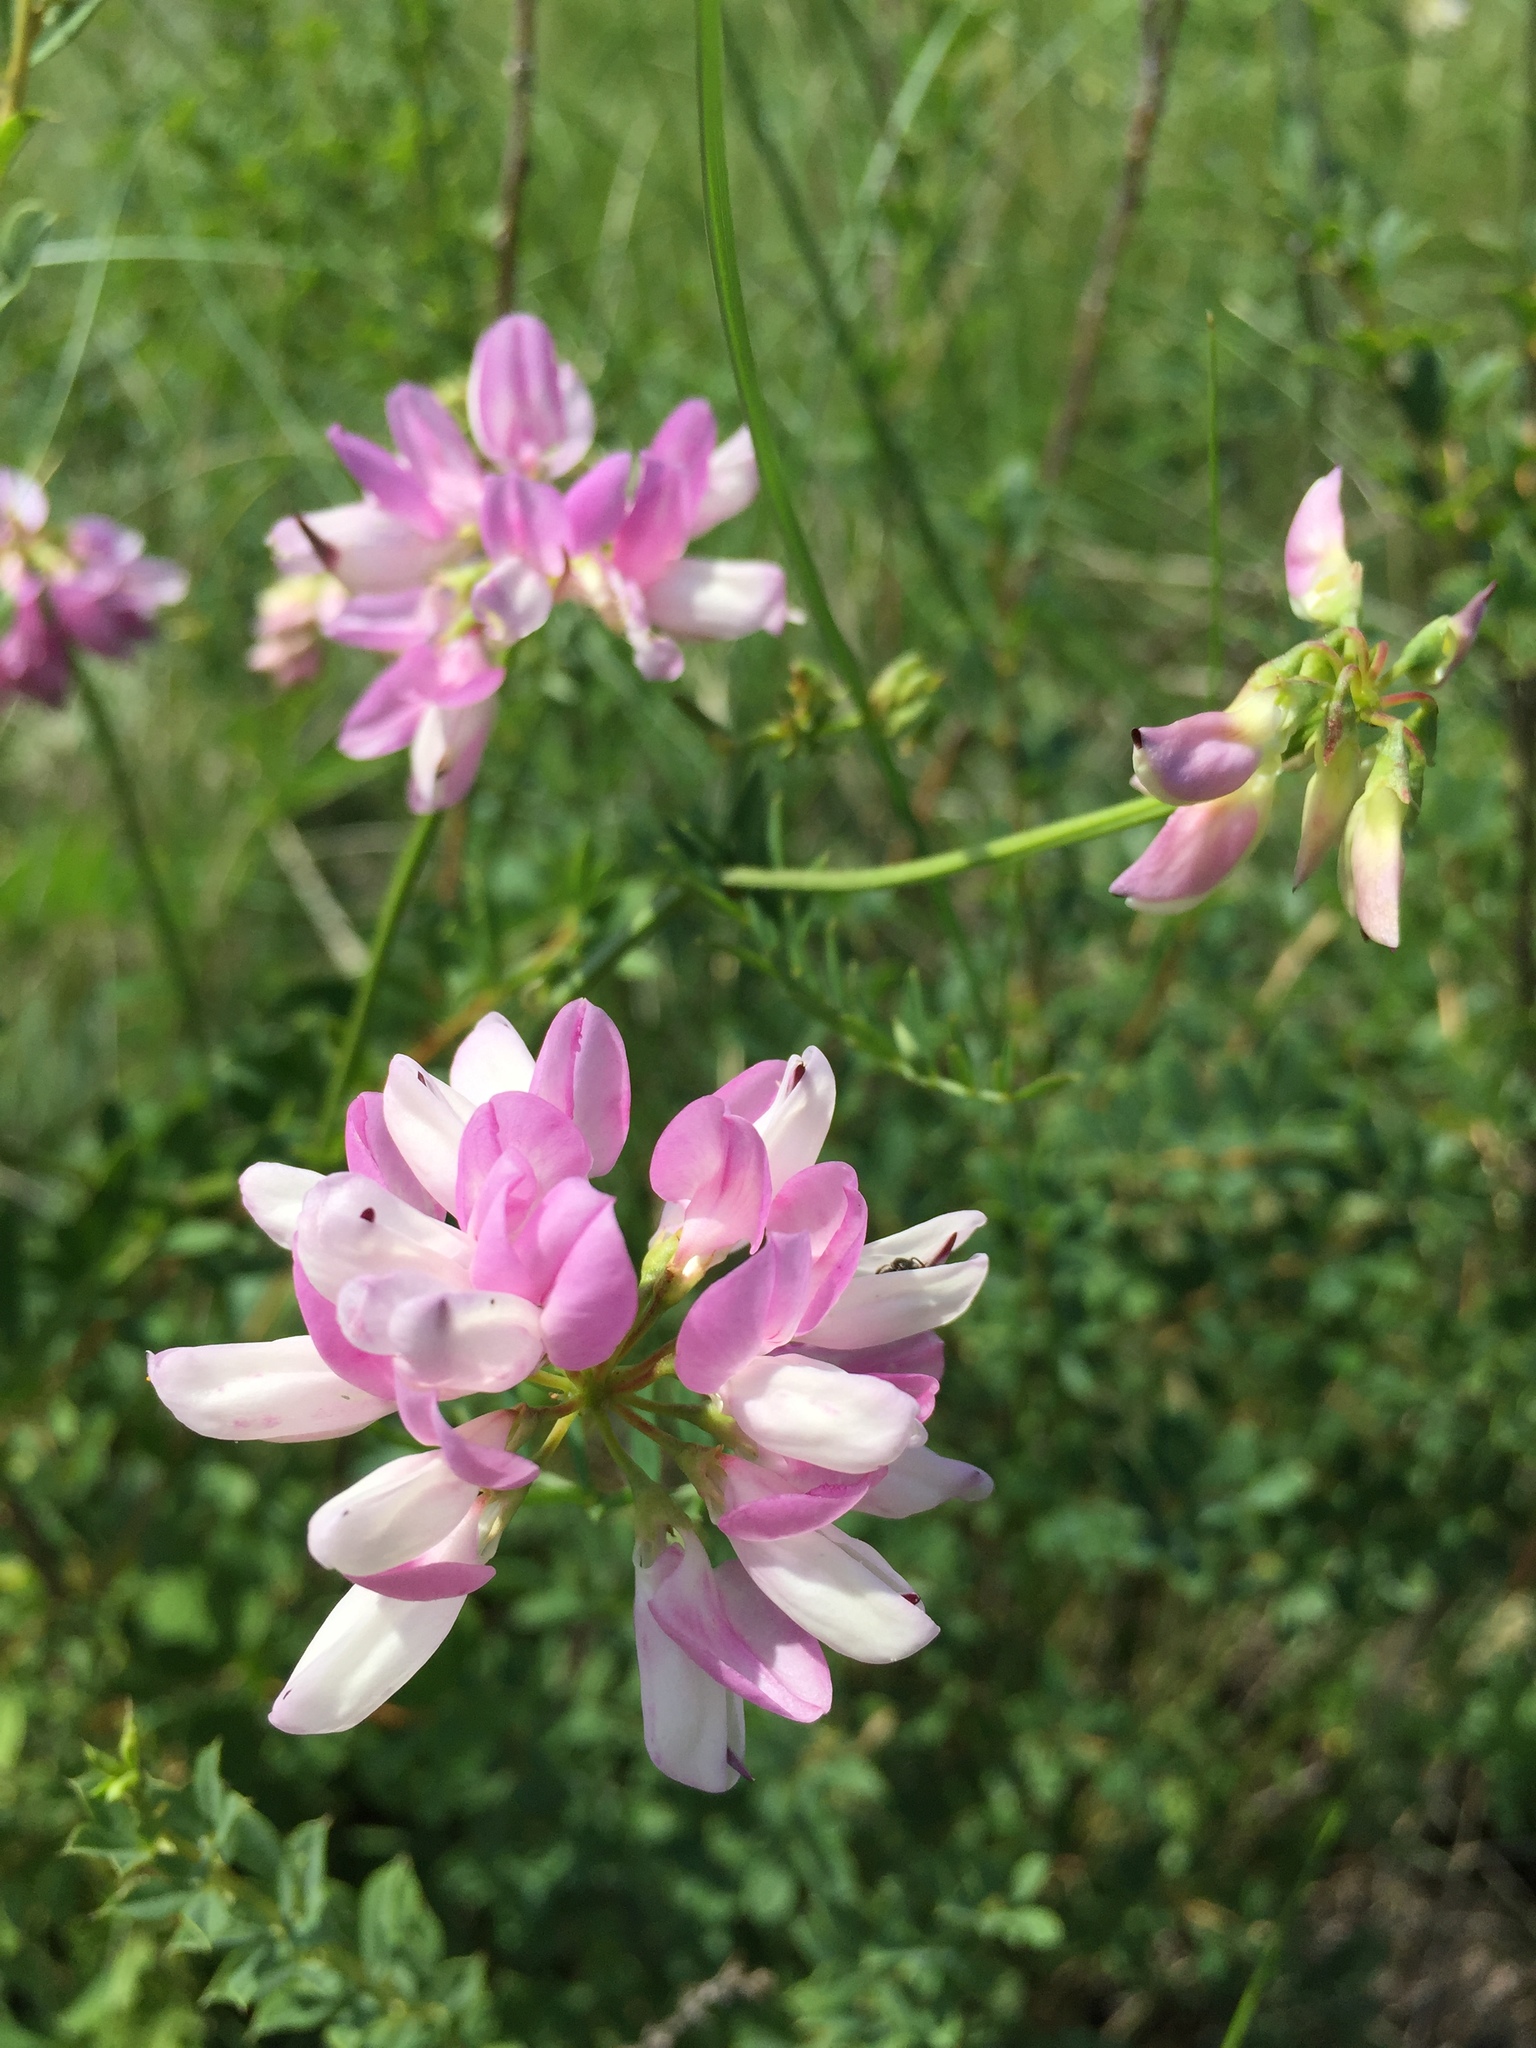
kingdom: Plantae
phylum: Tracheophyta
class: Magnoliopsida
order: Fabales
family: Fabaceae
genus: Coronilla
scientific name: Coronilla varia
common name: Crownvetch
